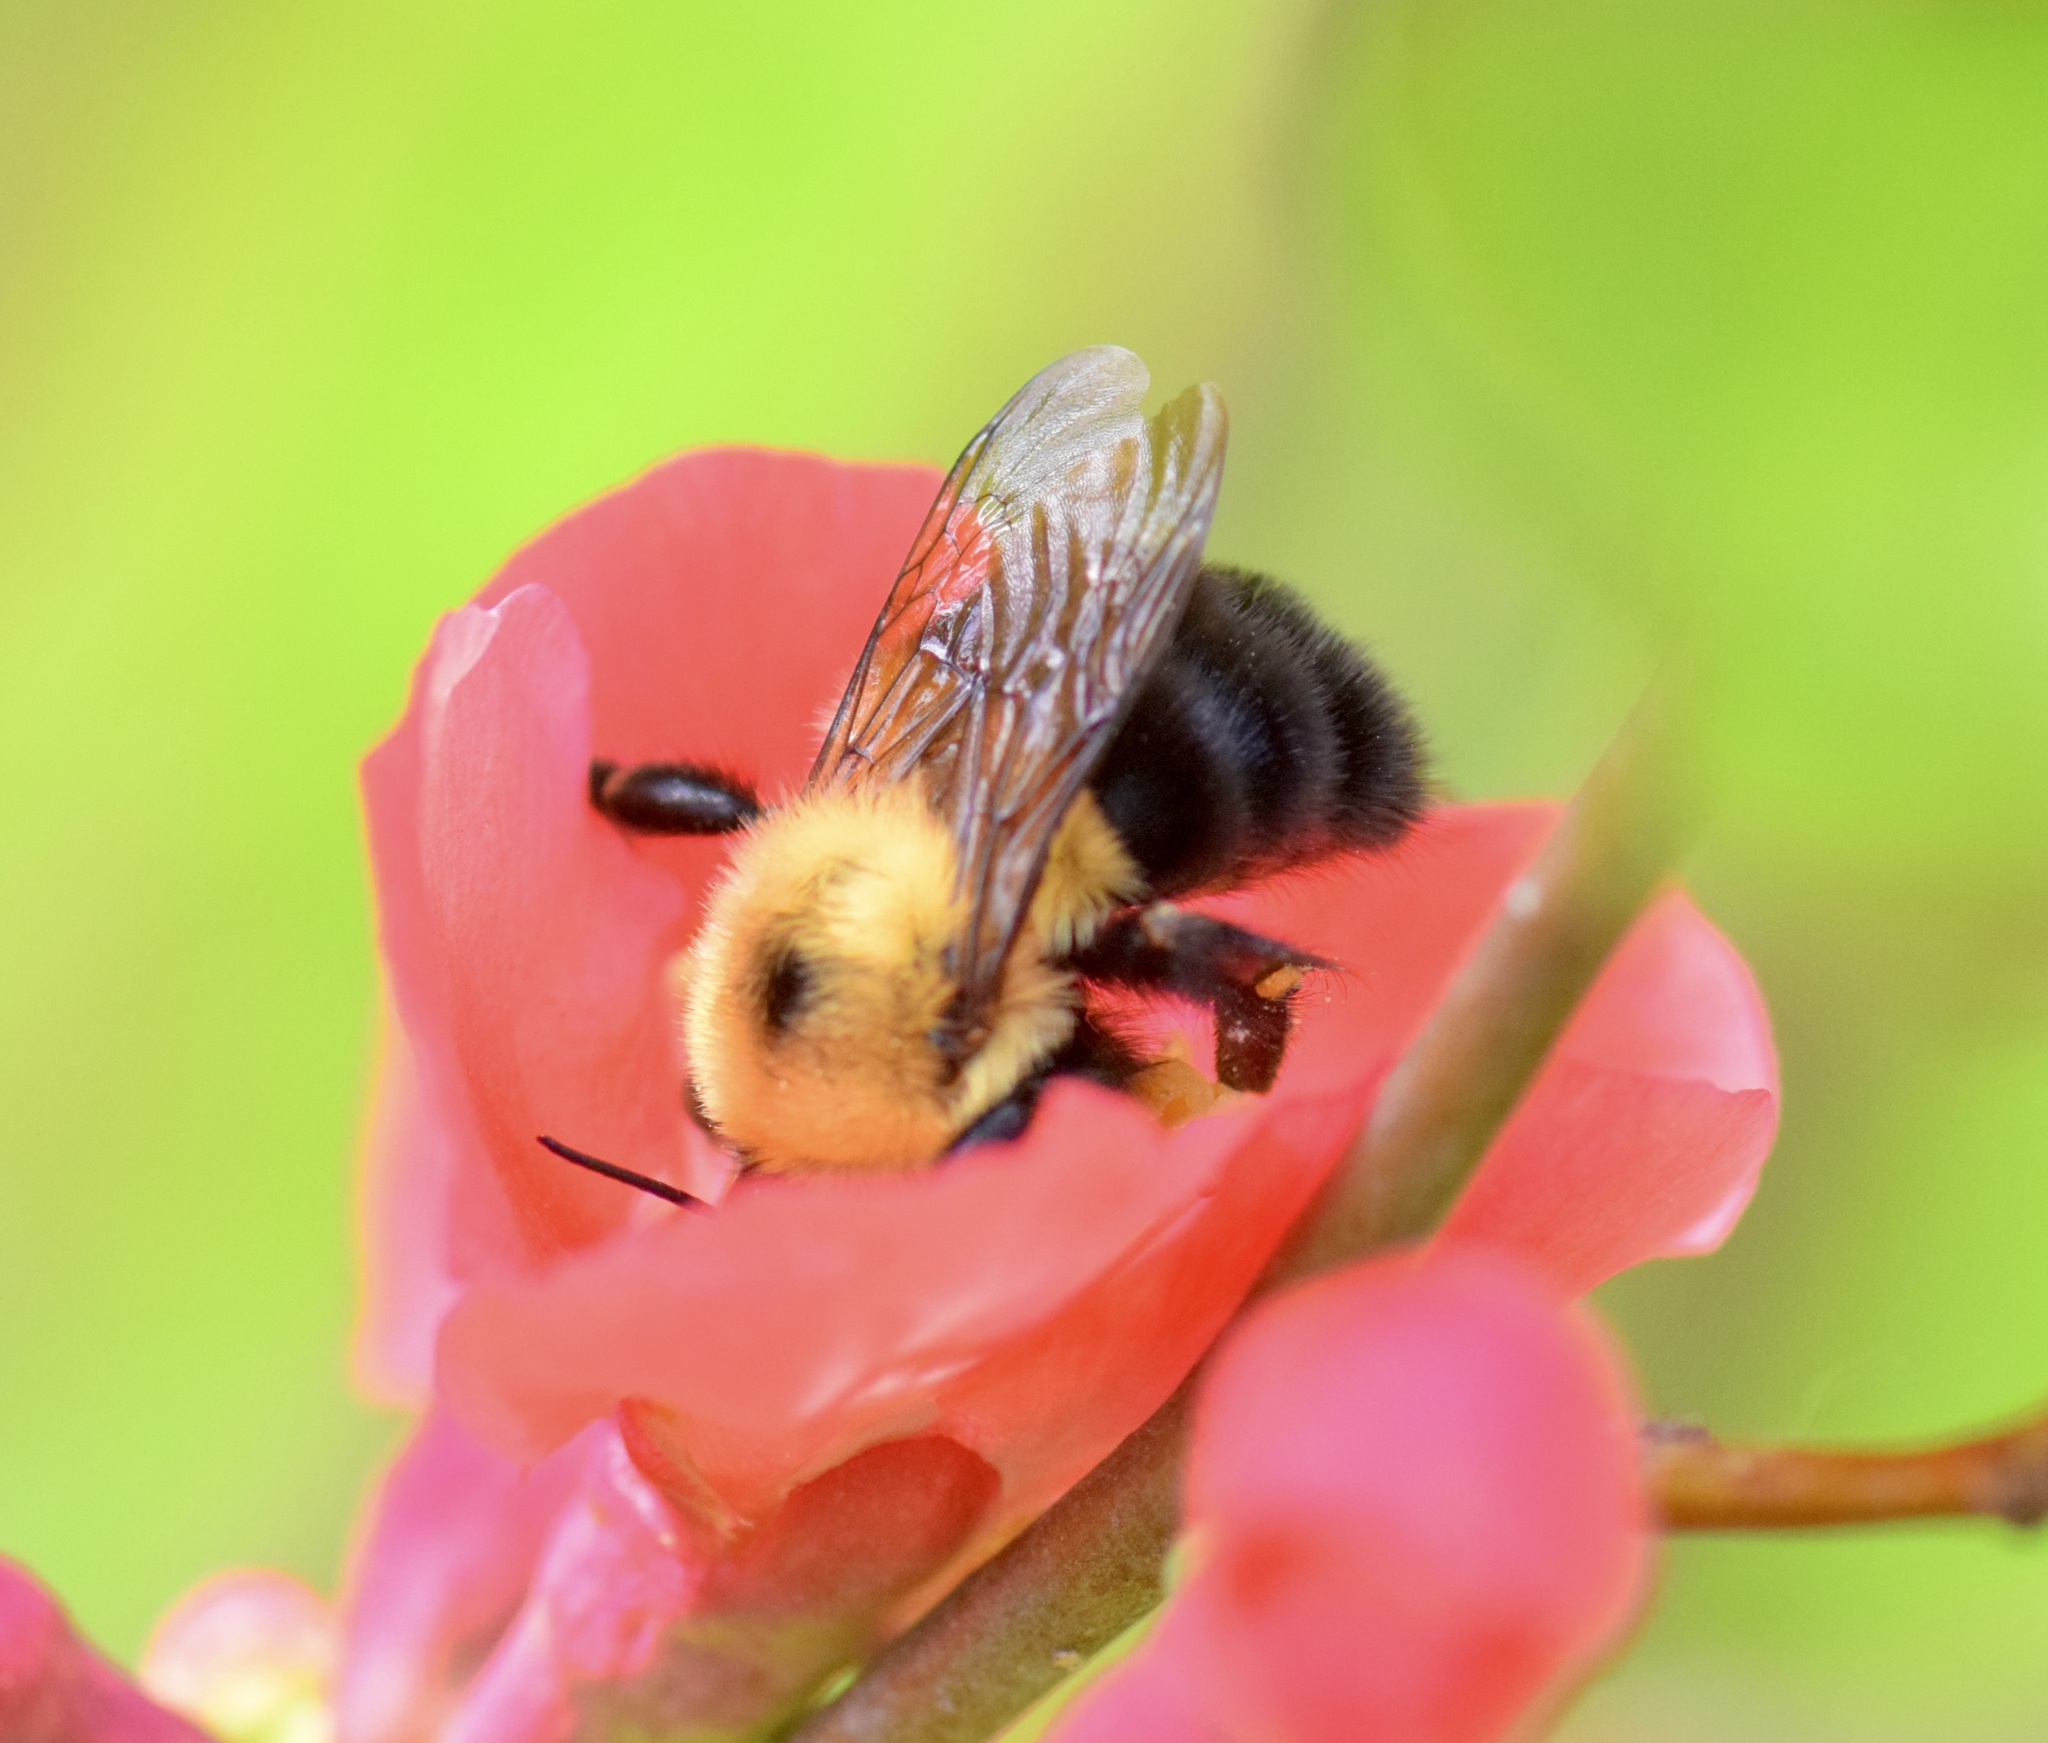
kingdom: Animalia
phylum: Arthropoda
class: Insecta
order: Hymenoptera
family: Apidae
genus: Bombus
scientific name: Bombus bimaculatus
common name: Two-spotted bumble bee
